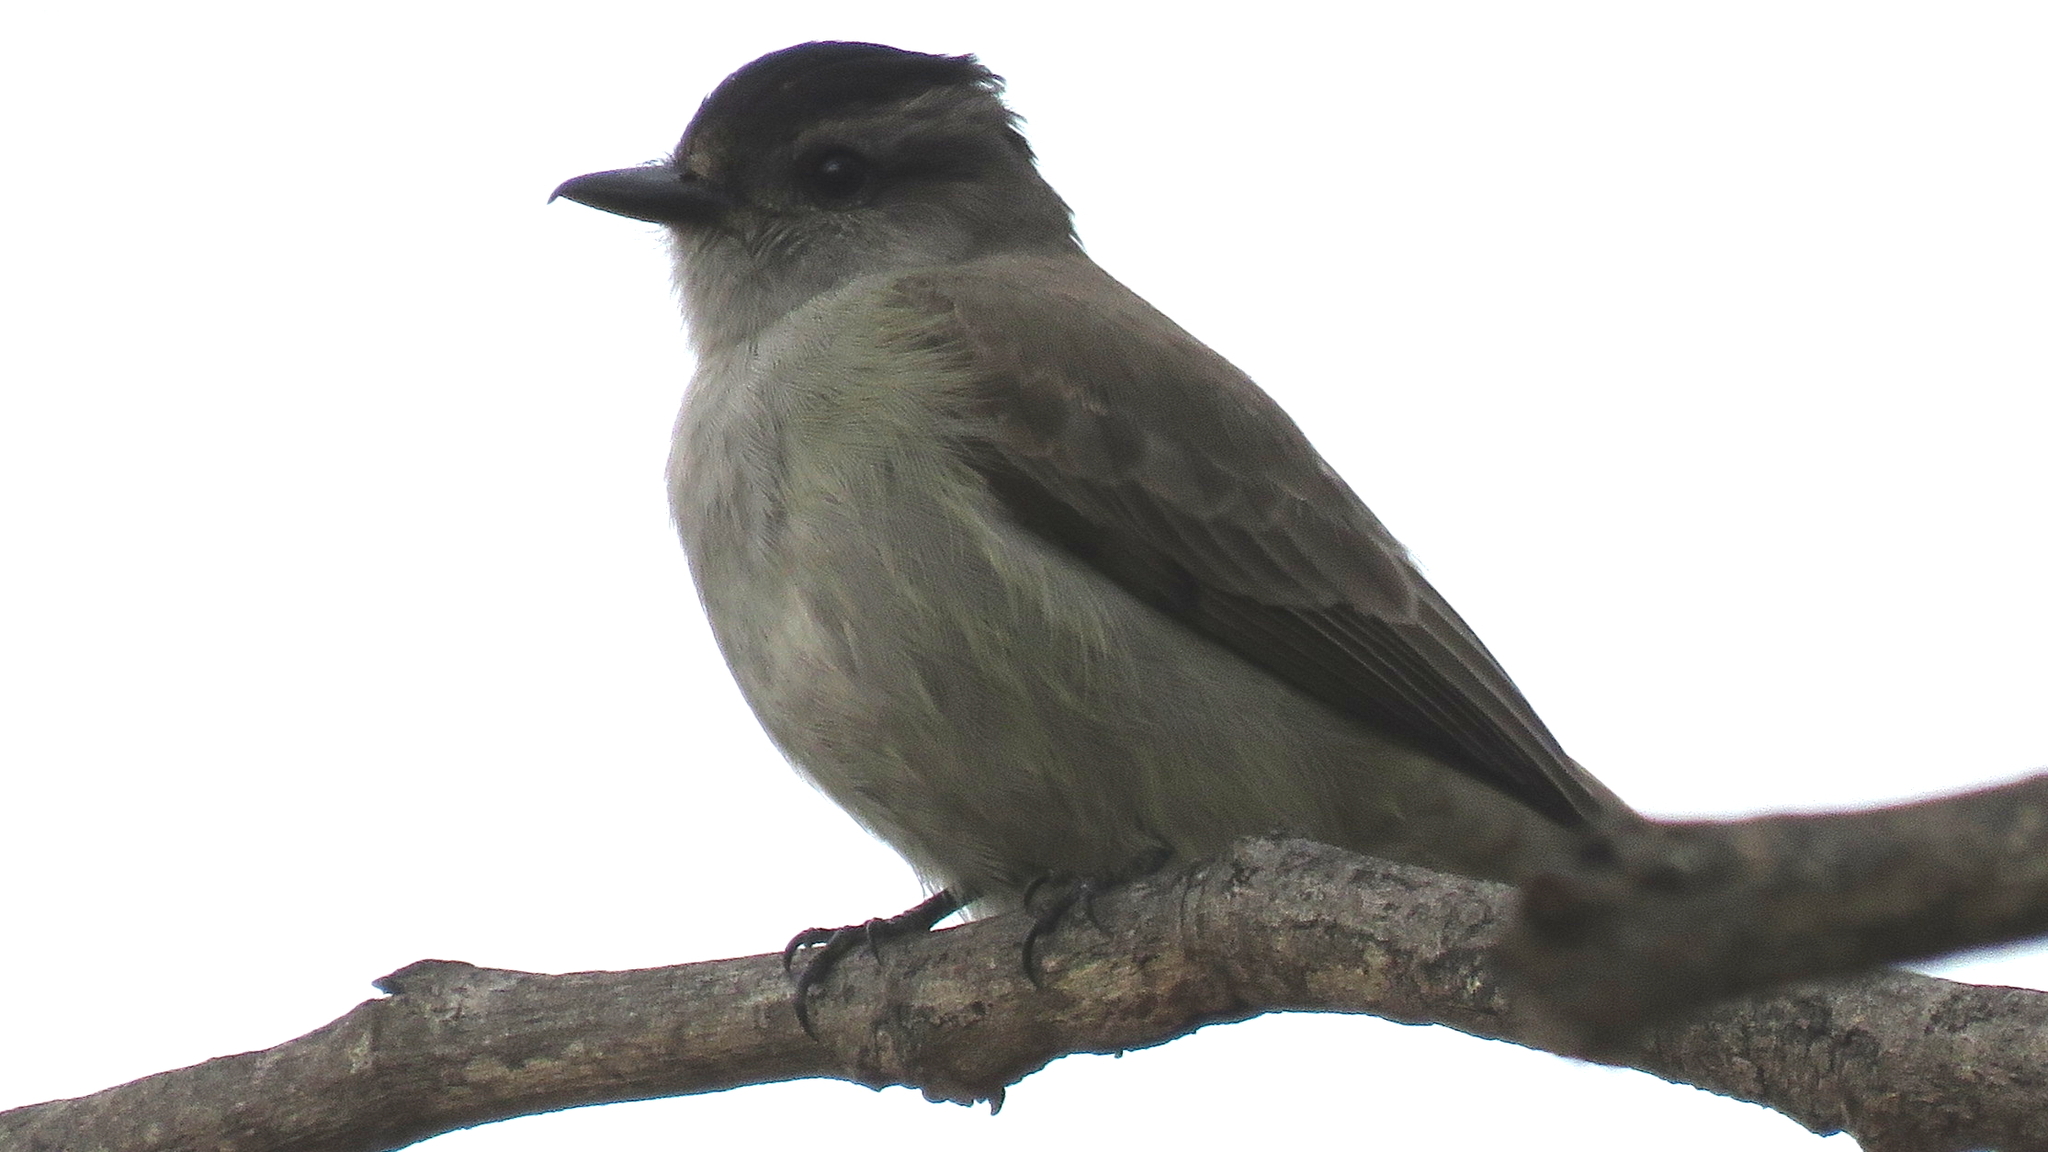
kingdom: Animalia
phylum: Chordata
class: Aves
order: Passeriformes
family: Tyrannidae
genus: Empidonomus
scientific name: Empidonomus aurantioatrocristatus
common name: Crowned slaty flycatcher
